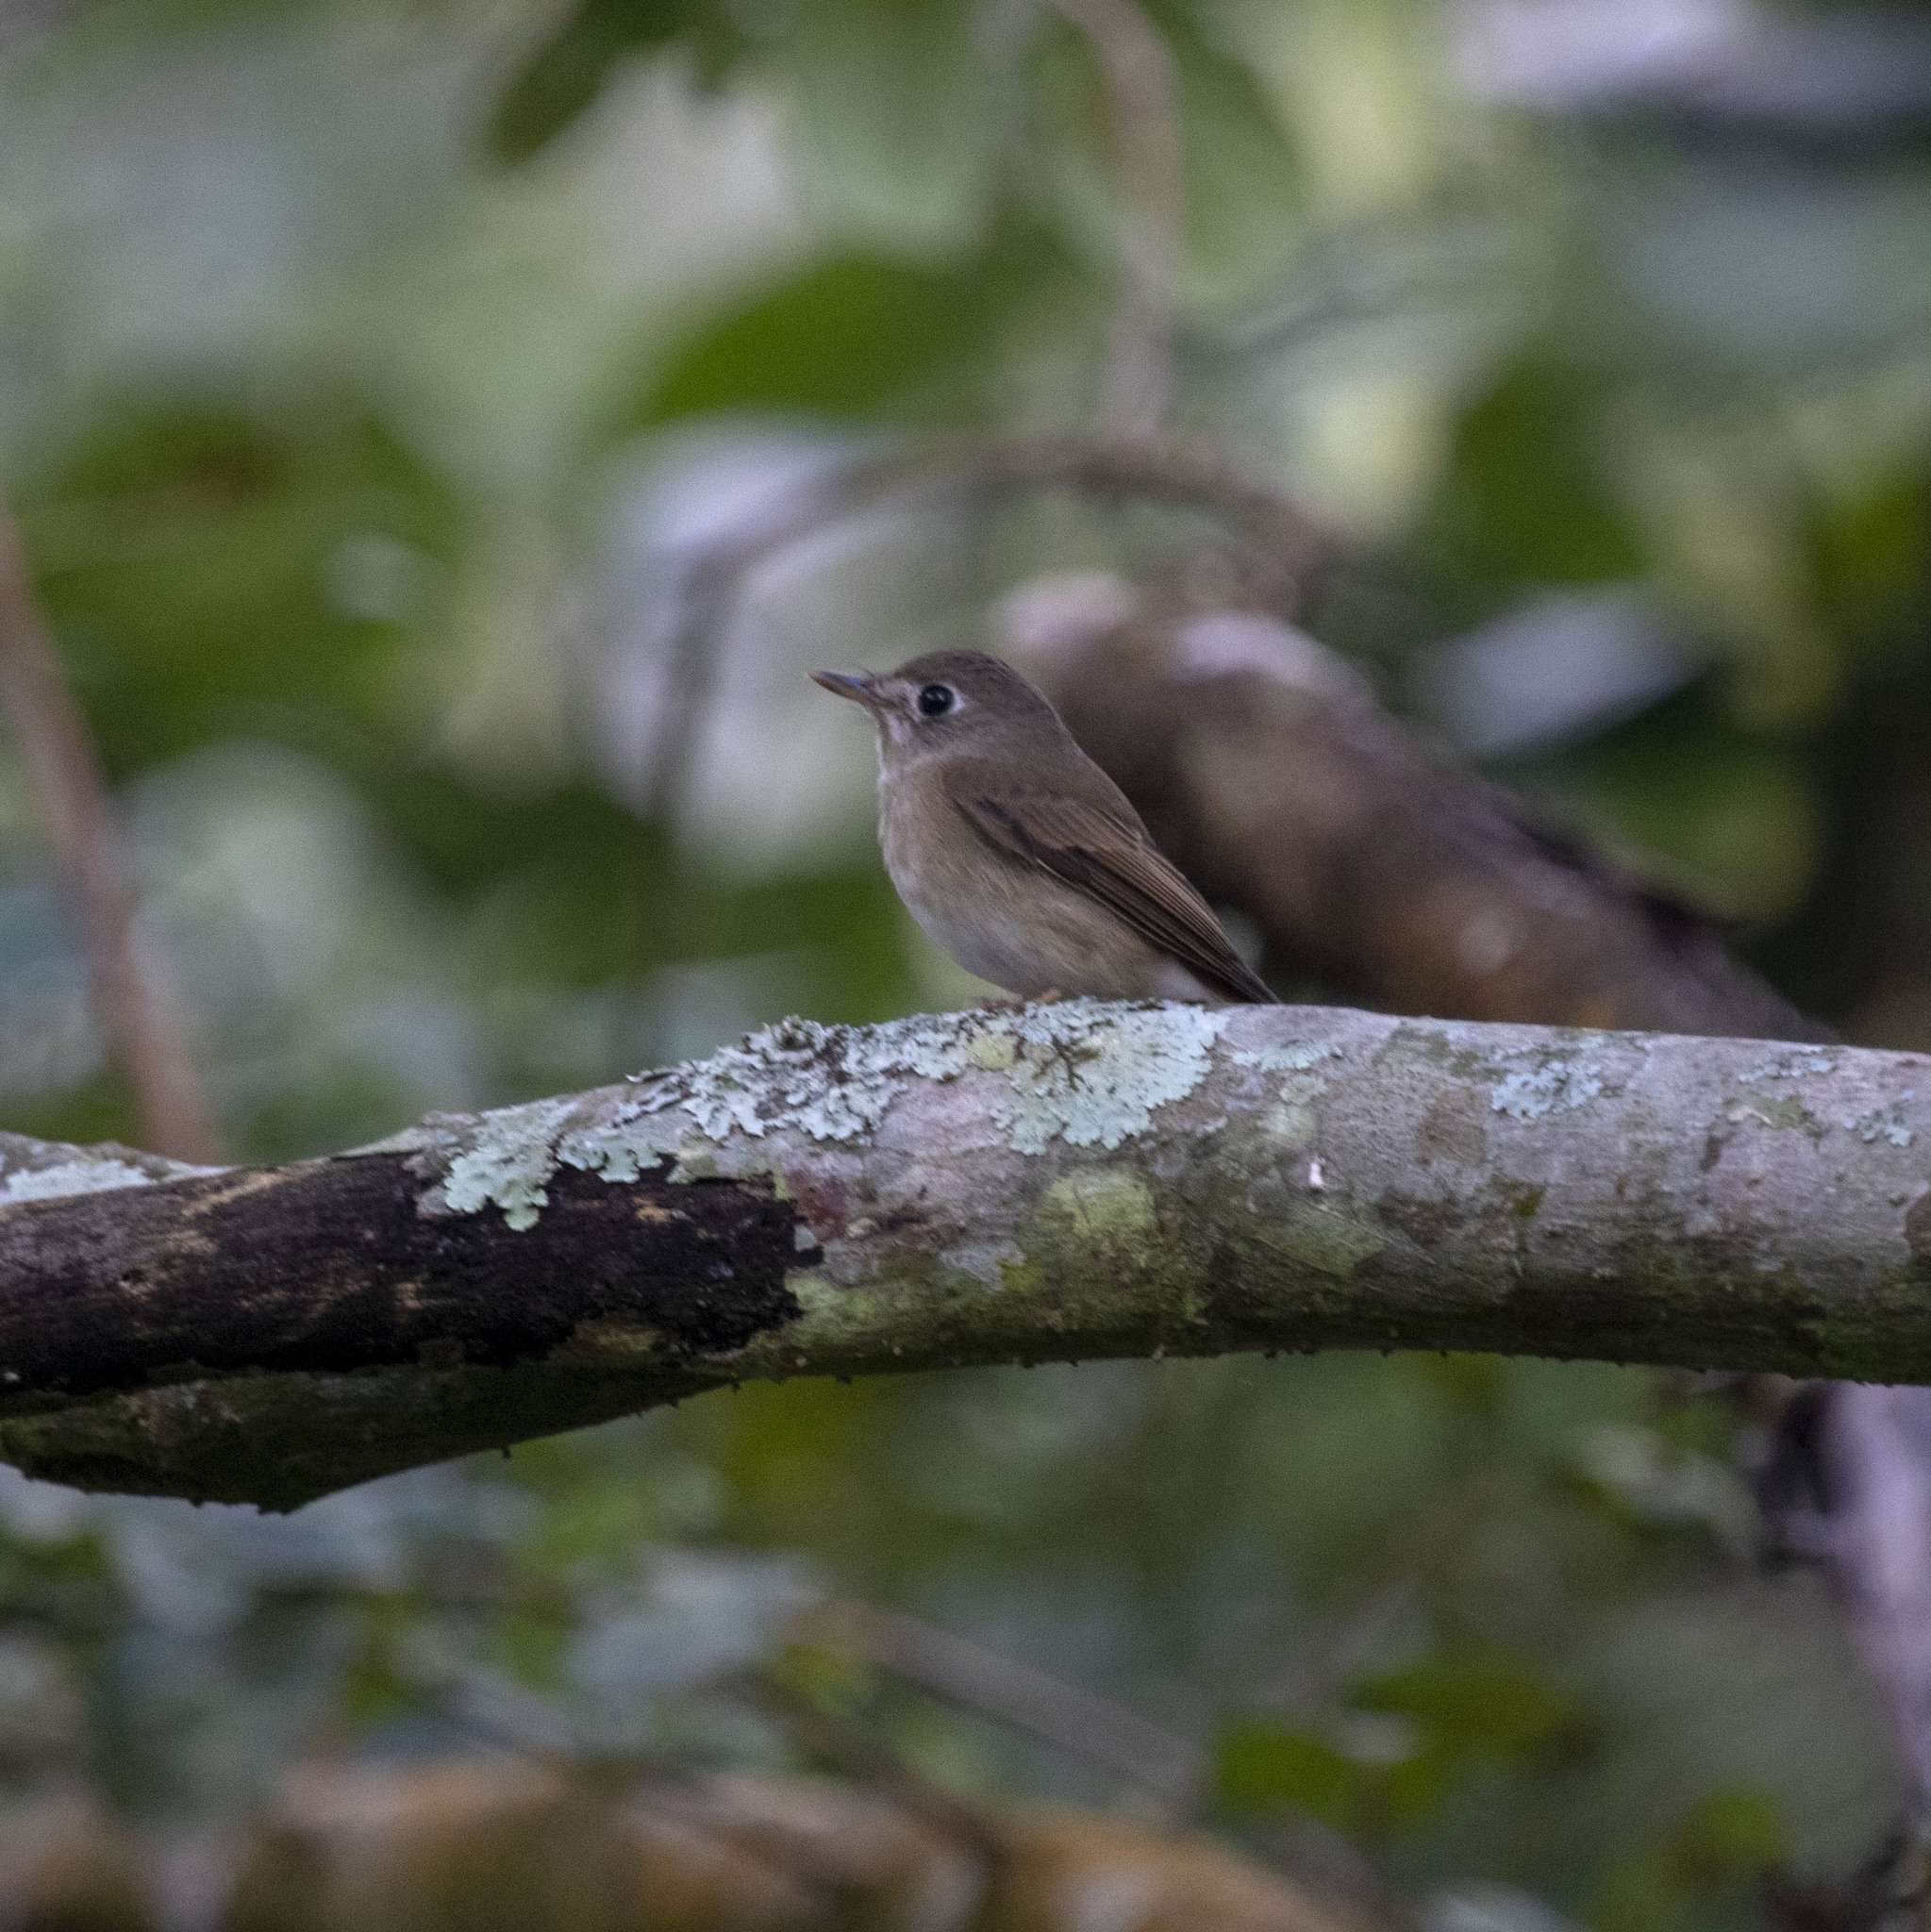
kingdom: Animalia
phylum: Chordata
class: Aves
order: Passeriformes
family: Muscicapidae
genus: Muscicapa
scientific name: Muscicapa latirostris
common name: Asian brown flycatcher
